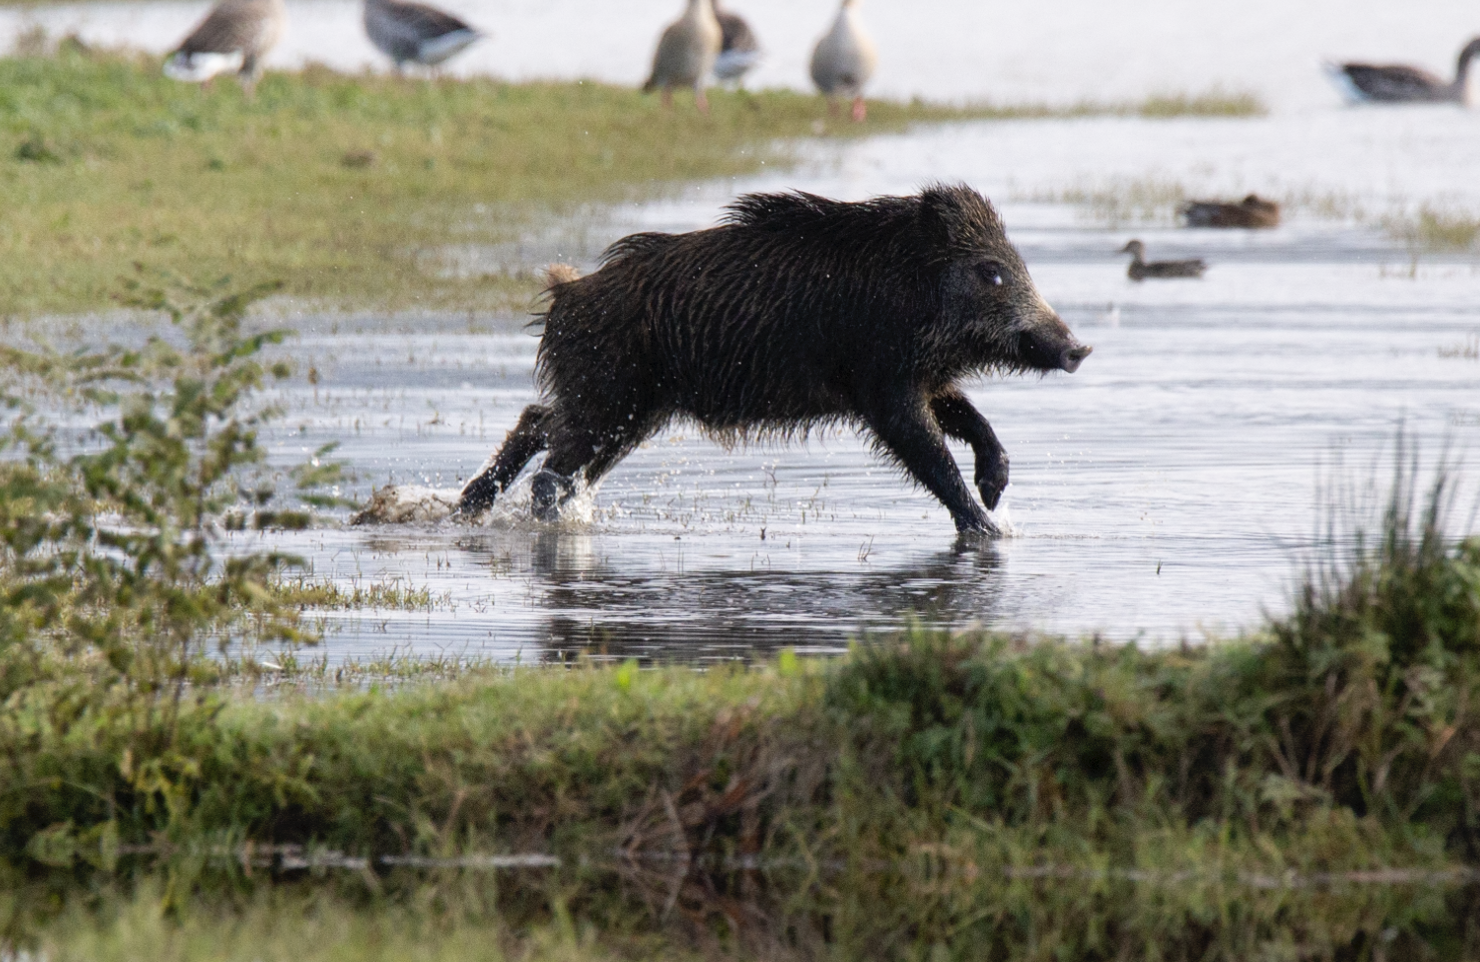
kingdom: Animalia
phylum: Chordata
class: Mammalia
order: Artiodactyla
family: Suidae
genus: Sus
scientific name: Sus scrofa
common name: Wild boar
